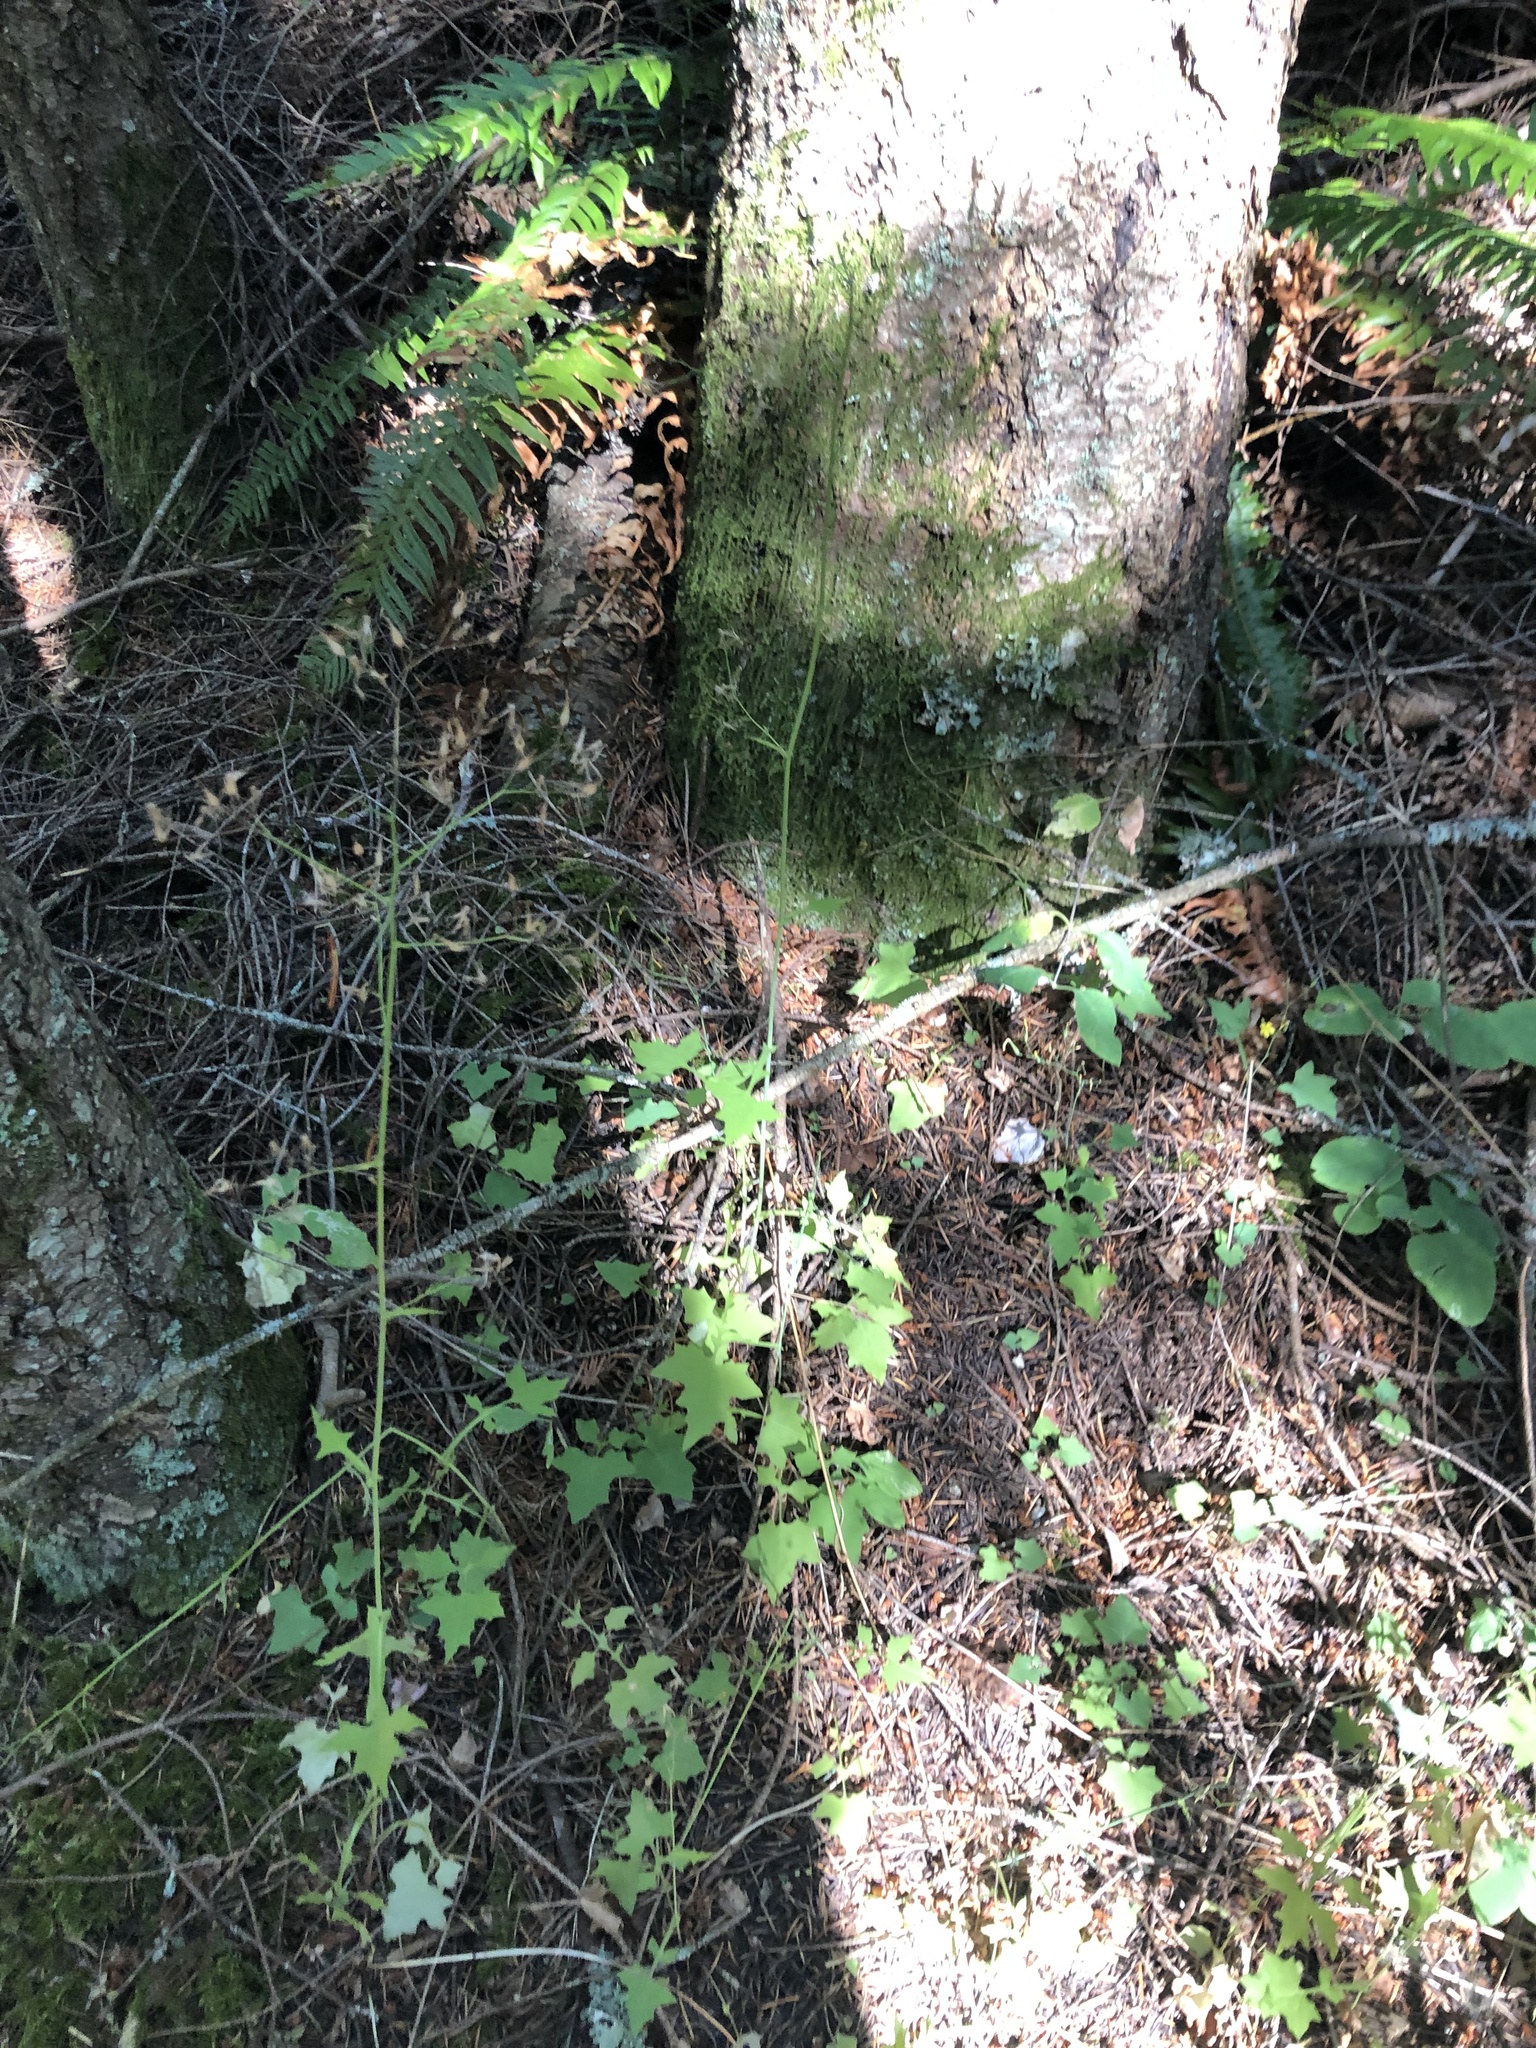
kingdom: Plantae
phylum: Tracheophyta
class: Magnoliopsida
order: Asterales
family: Asteraceae
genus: Mycelis
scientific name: Mycelis muralis
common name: Wall lettuce
